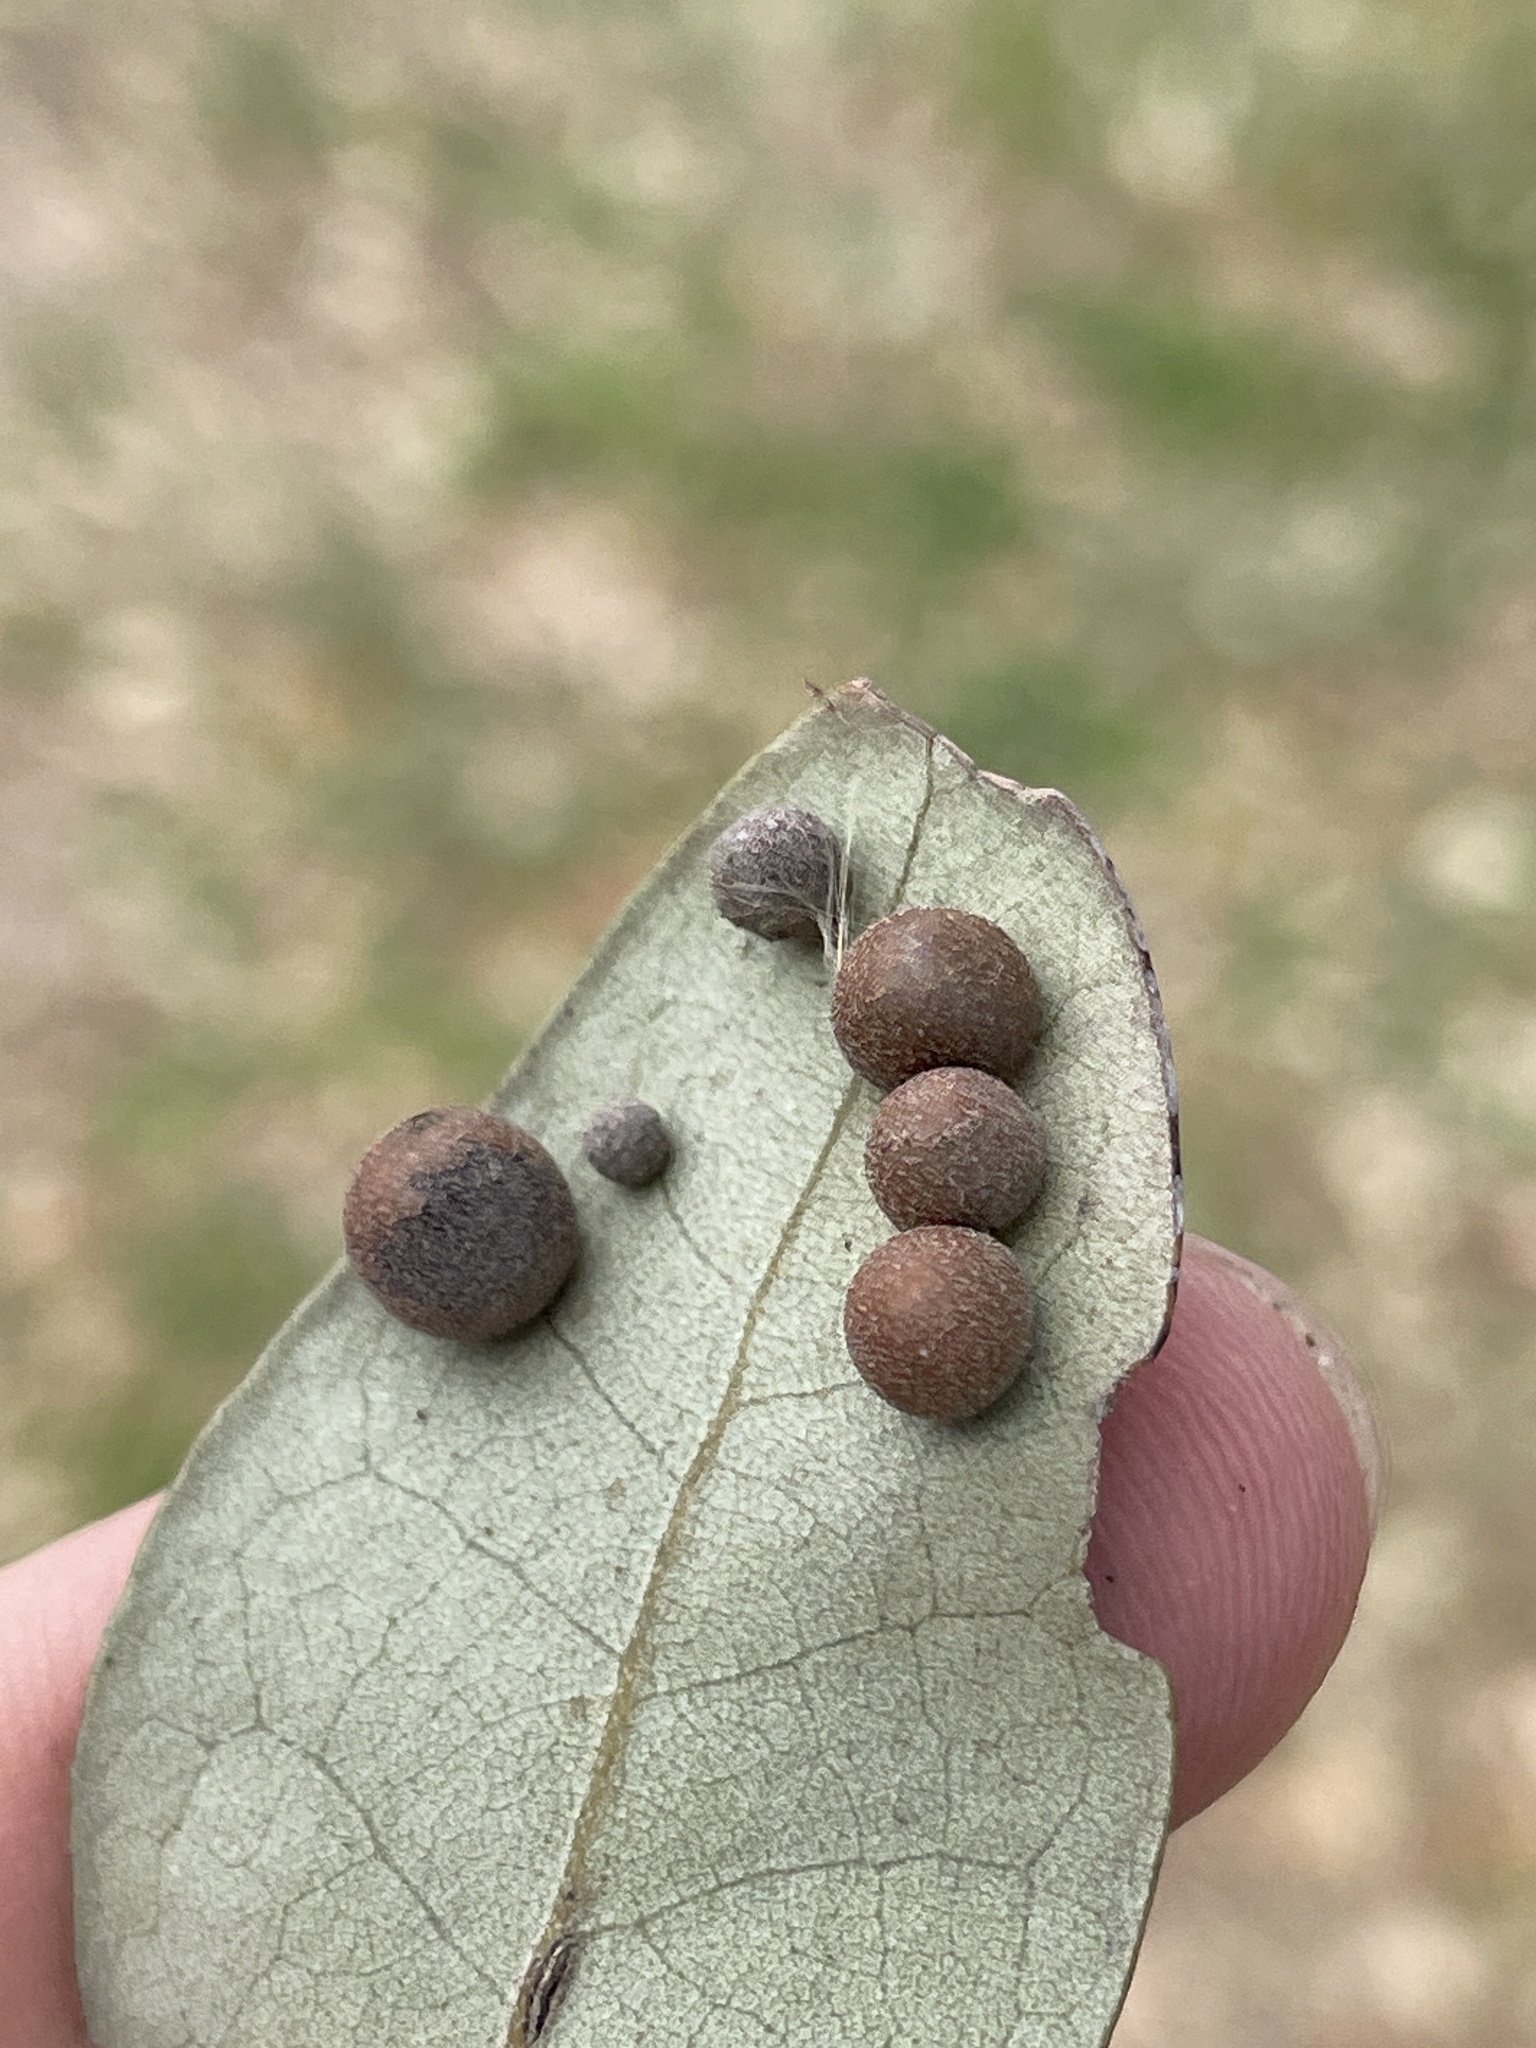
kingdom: Animalia
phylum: Arthropoda
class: Insecta
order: Hymenoptera
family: Cynipidae
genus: Belonocnema
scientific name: Belonocnema kinseyi
